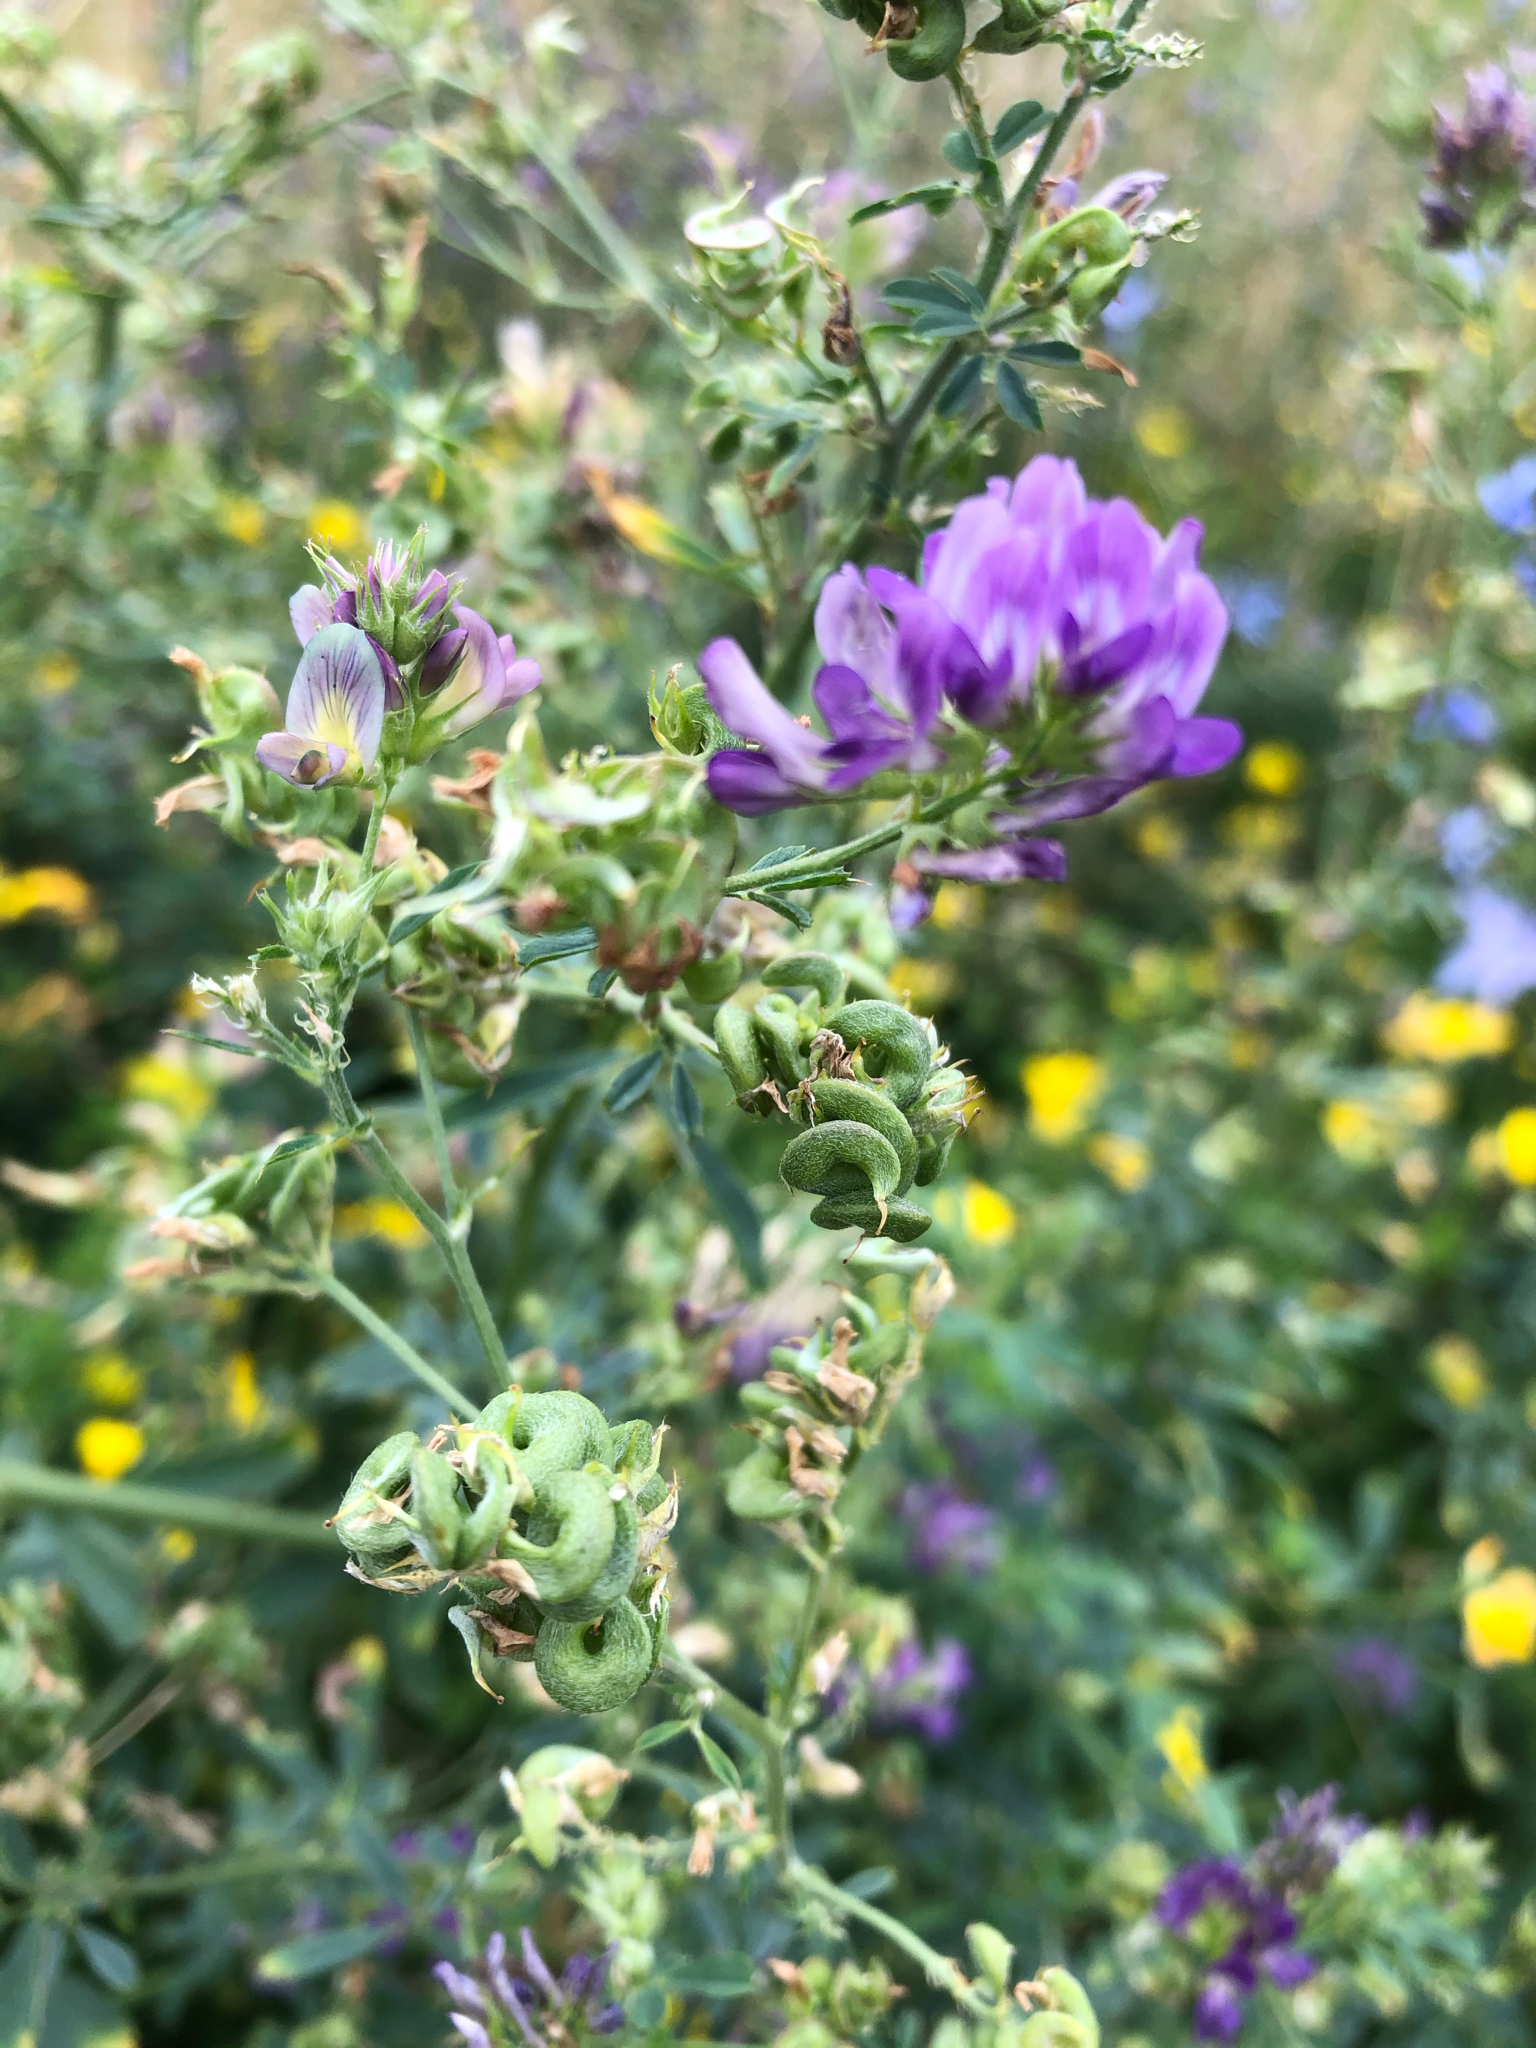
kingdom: Plantae
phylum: Tracheophyta
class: Magnoliopsida
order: Fabales
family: Fabaceae
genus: Medicago
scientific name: Medicago sativa
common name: Alfalfa
